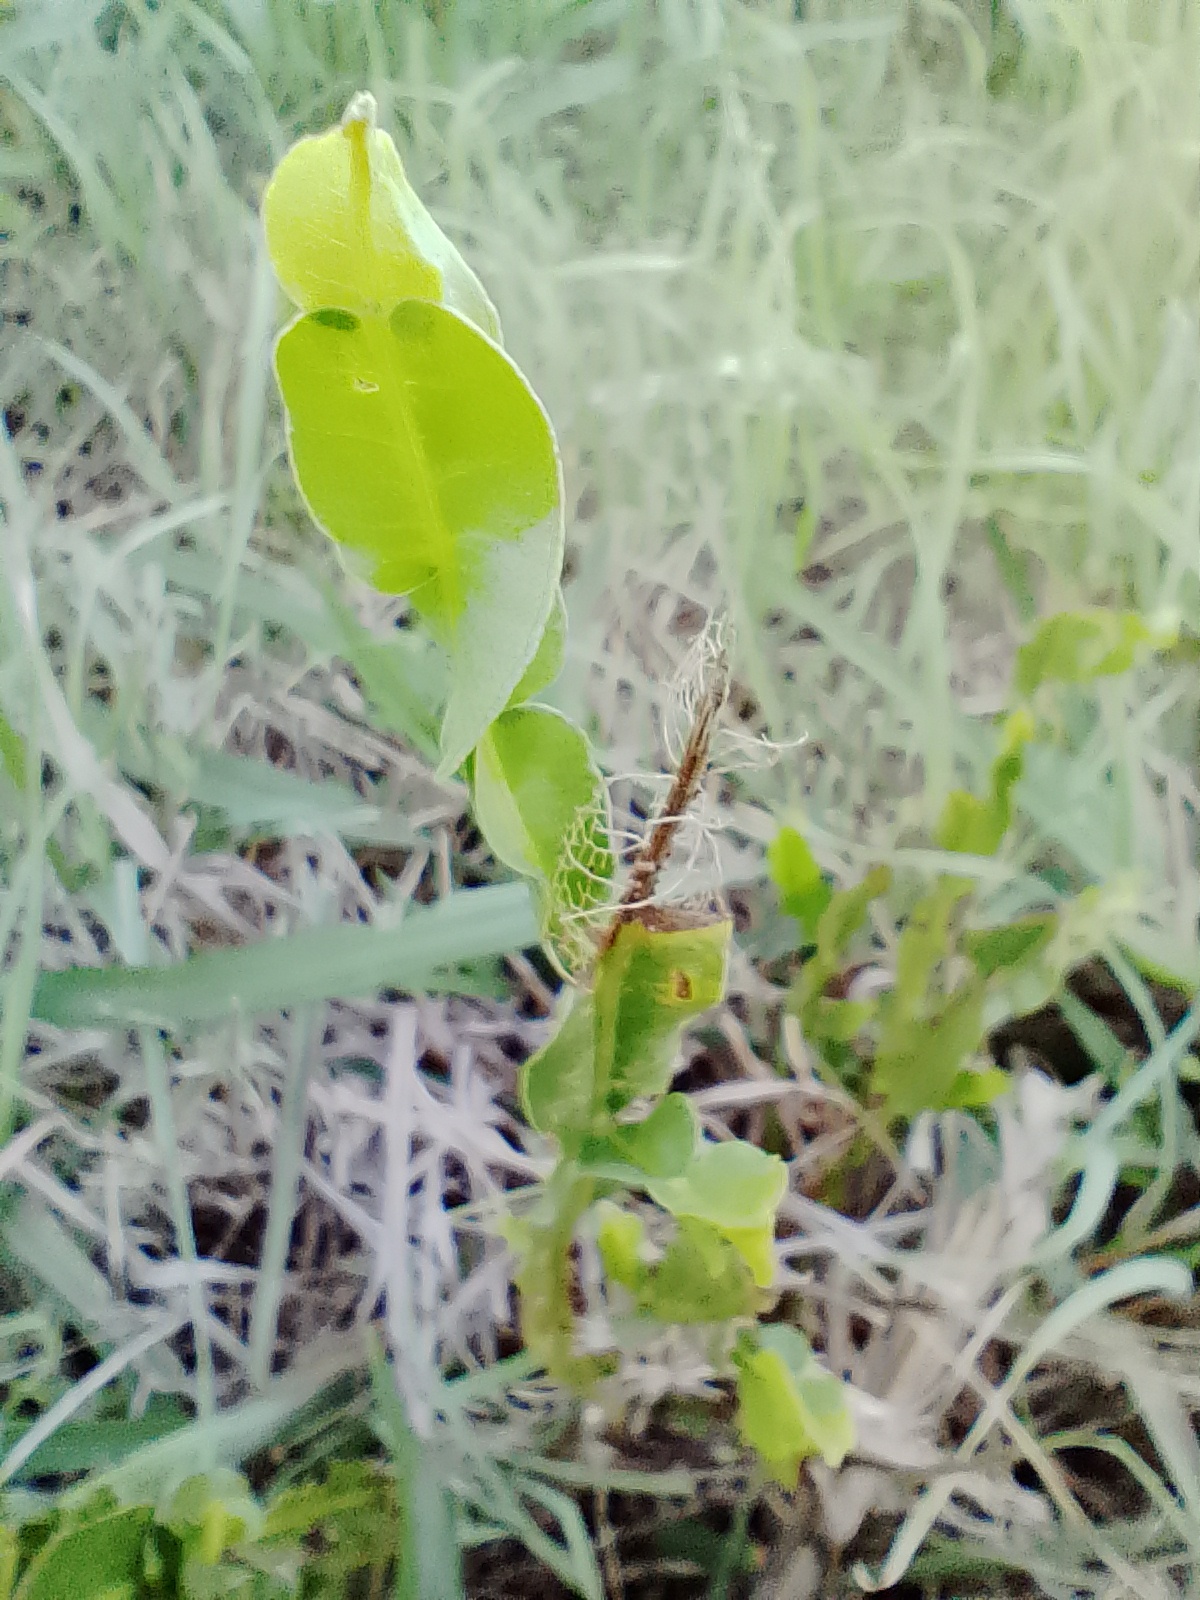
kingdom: Plantae
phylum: Tracheophyta
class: Magnoliopsida
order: Asterales
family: Asteraceae
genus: Baccharis
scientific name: Baccharis trimera
